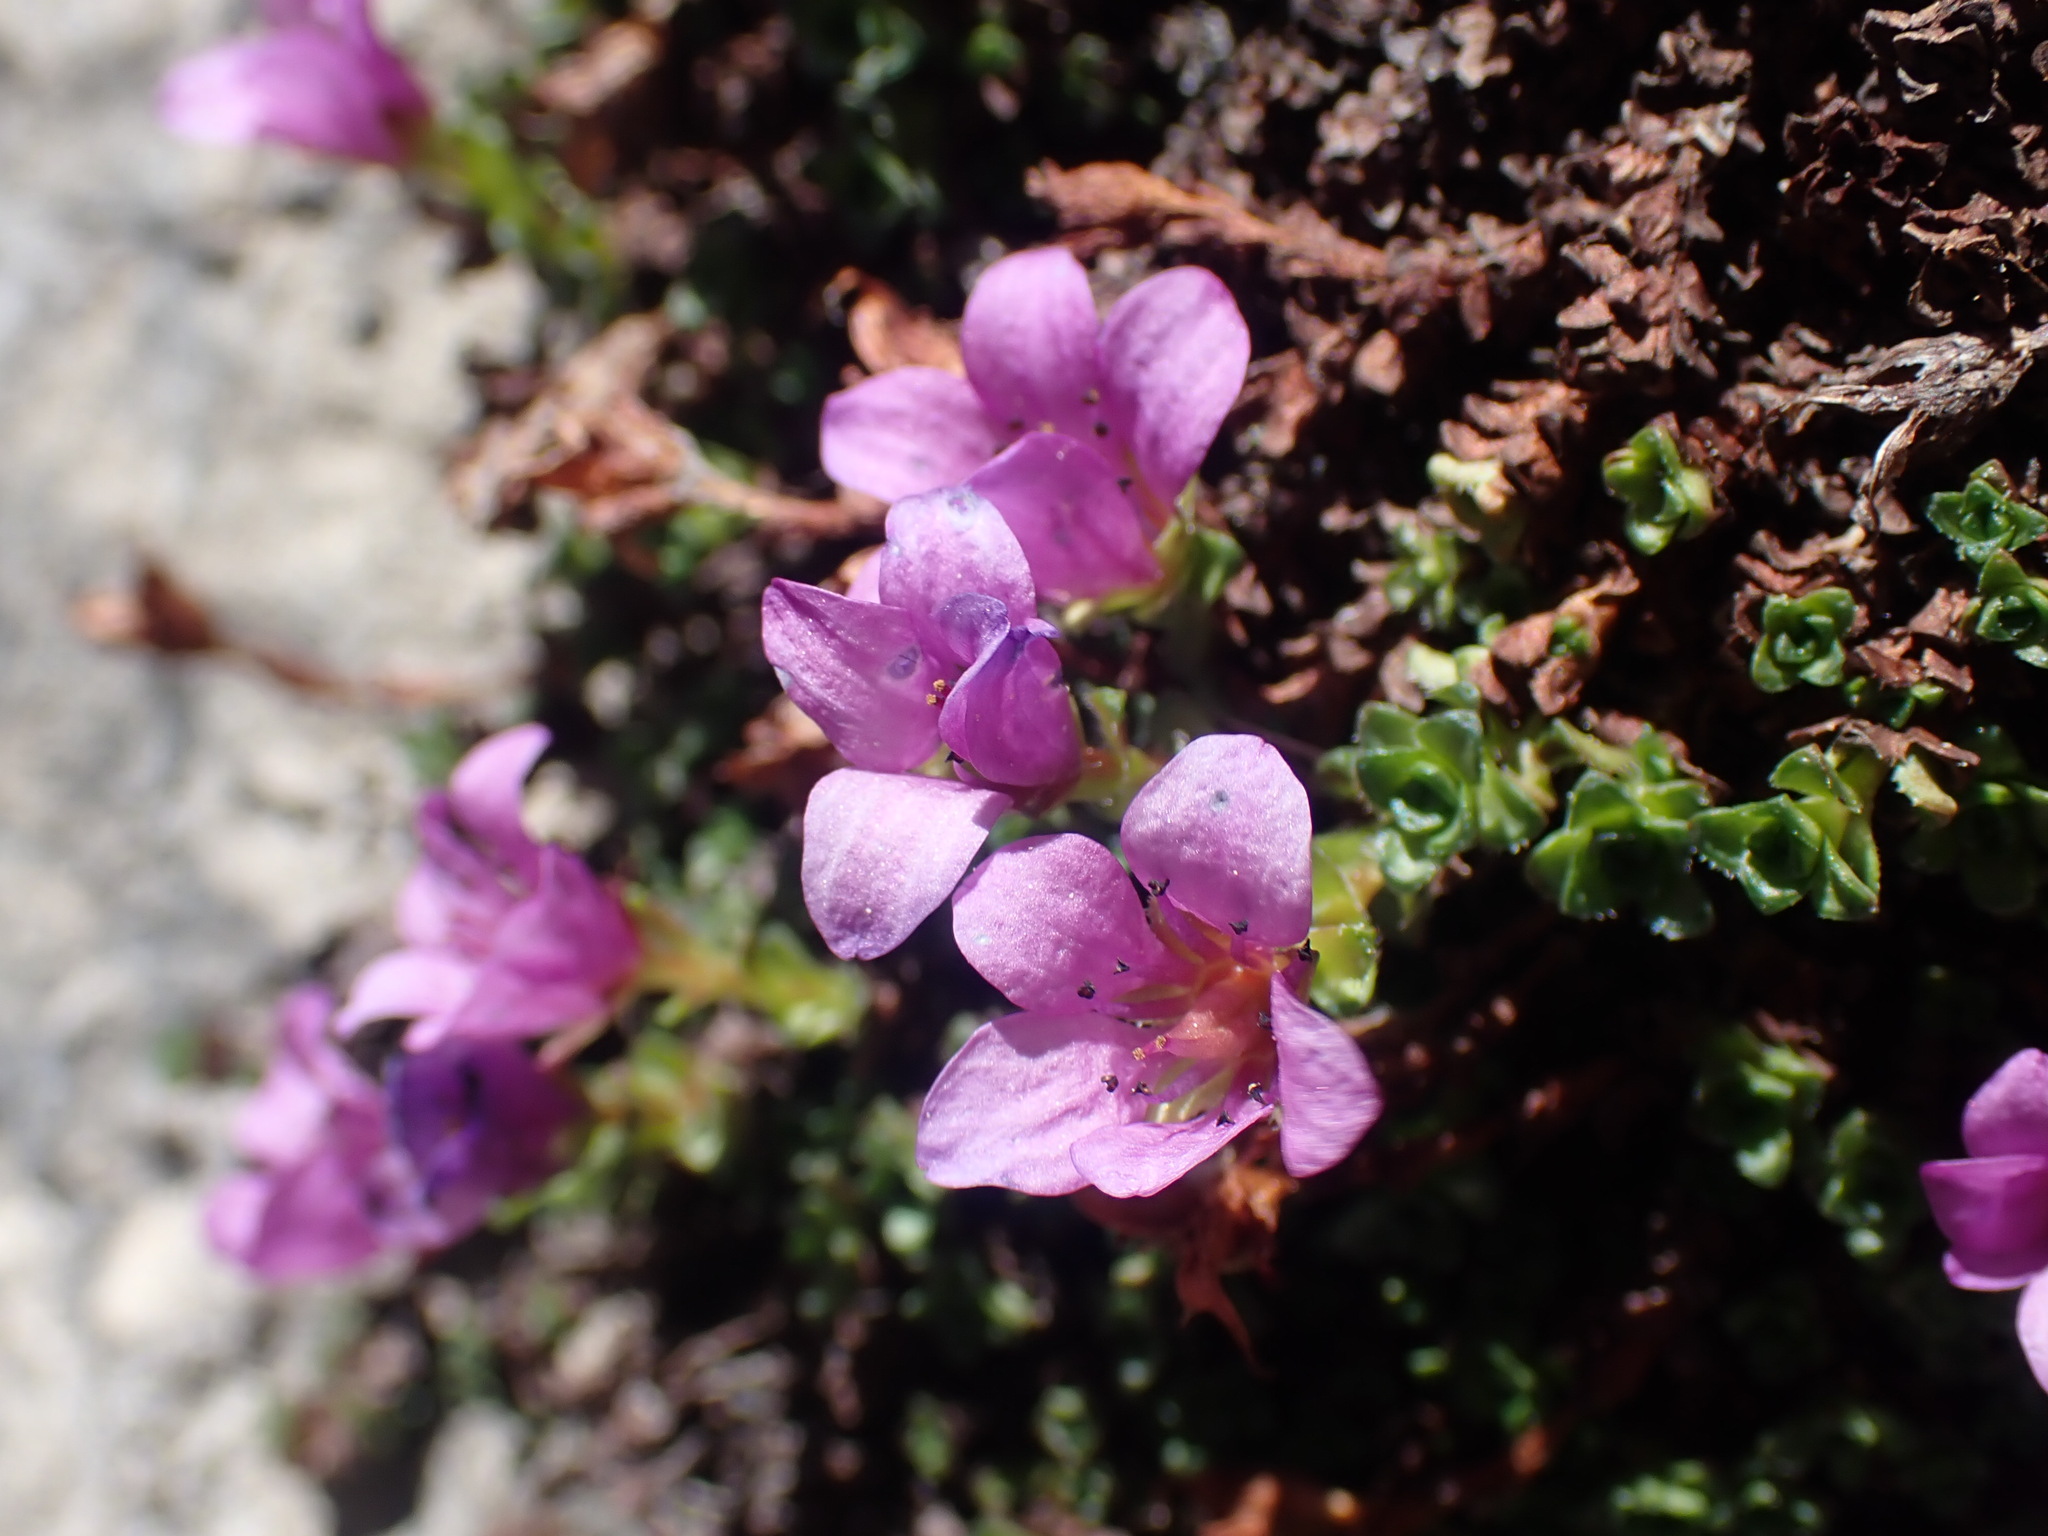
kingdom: Plantae
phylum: Tracheophyta
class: Magnoliopsida
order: Saxifragales
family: Saxifragaceae
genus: Saxifraga
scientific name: Saxifraga oppositifolia
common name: Purple saxifrage
